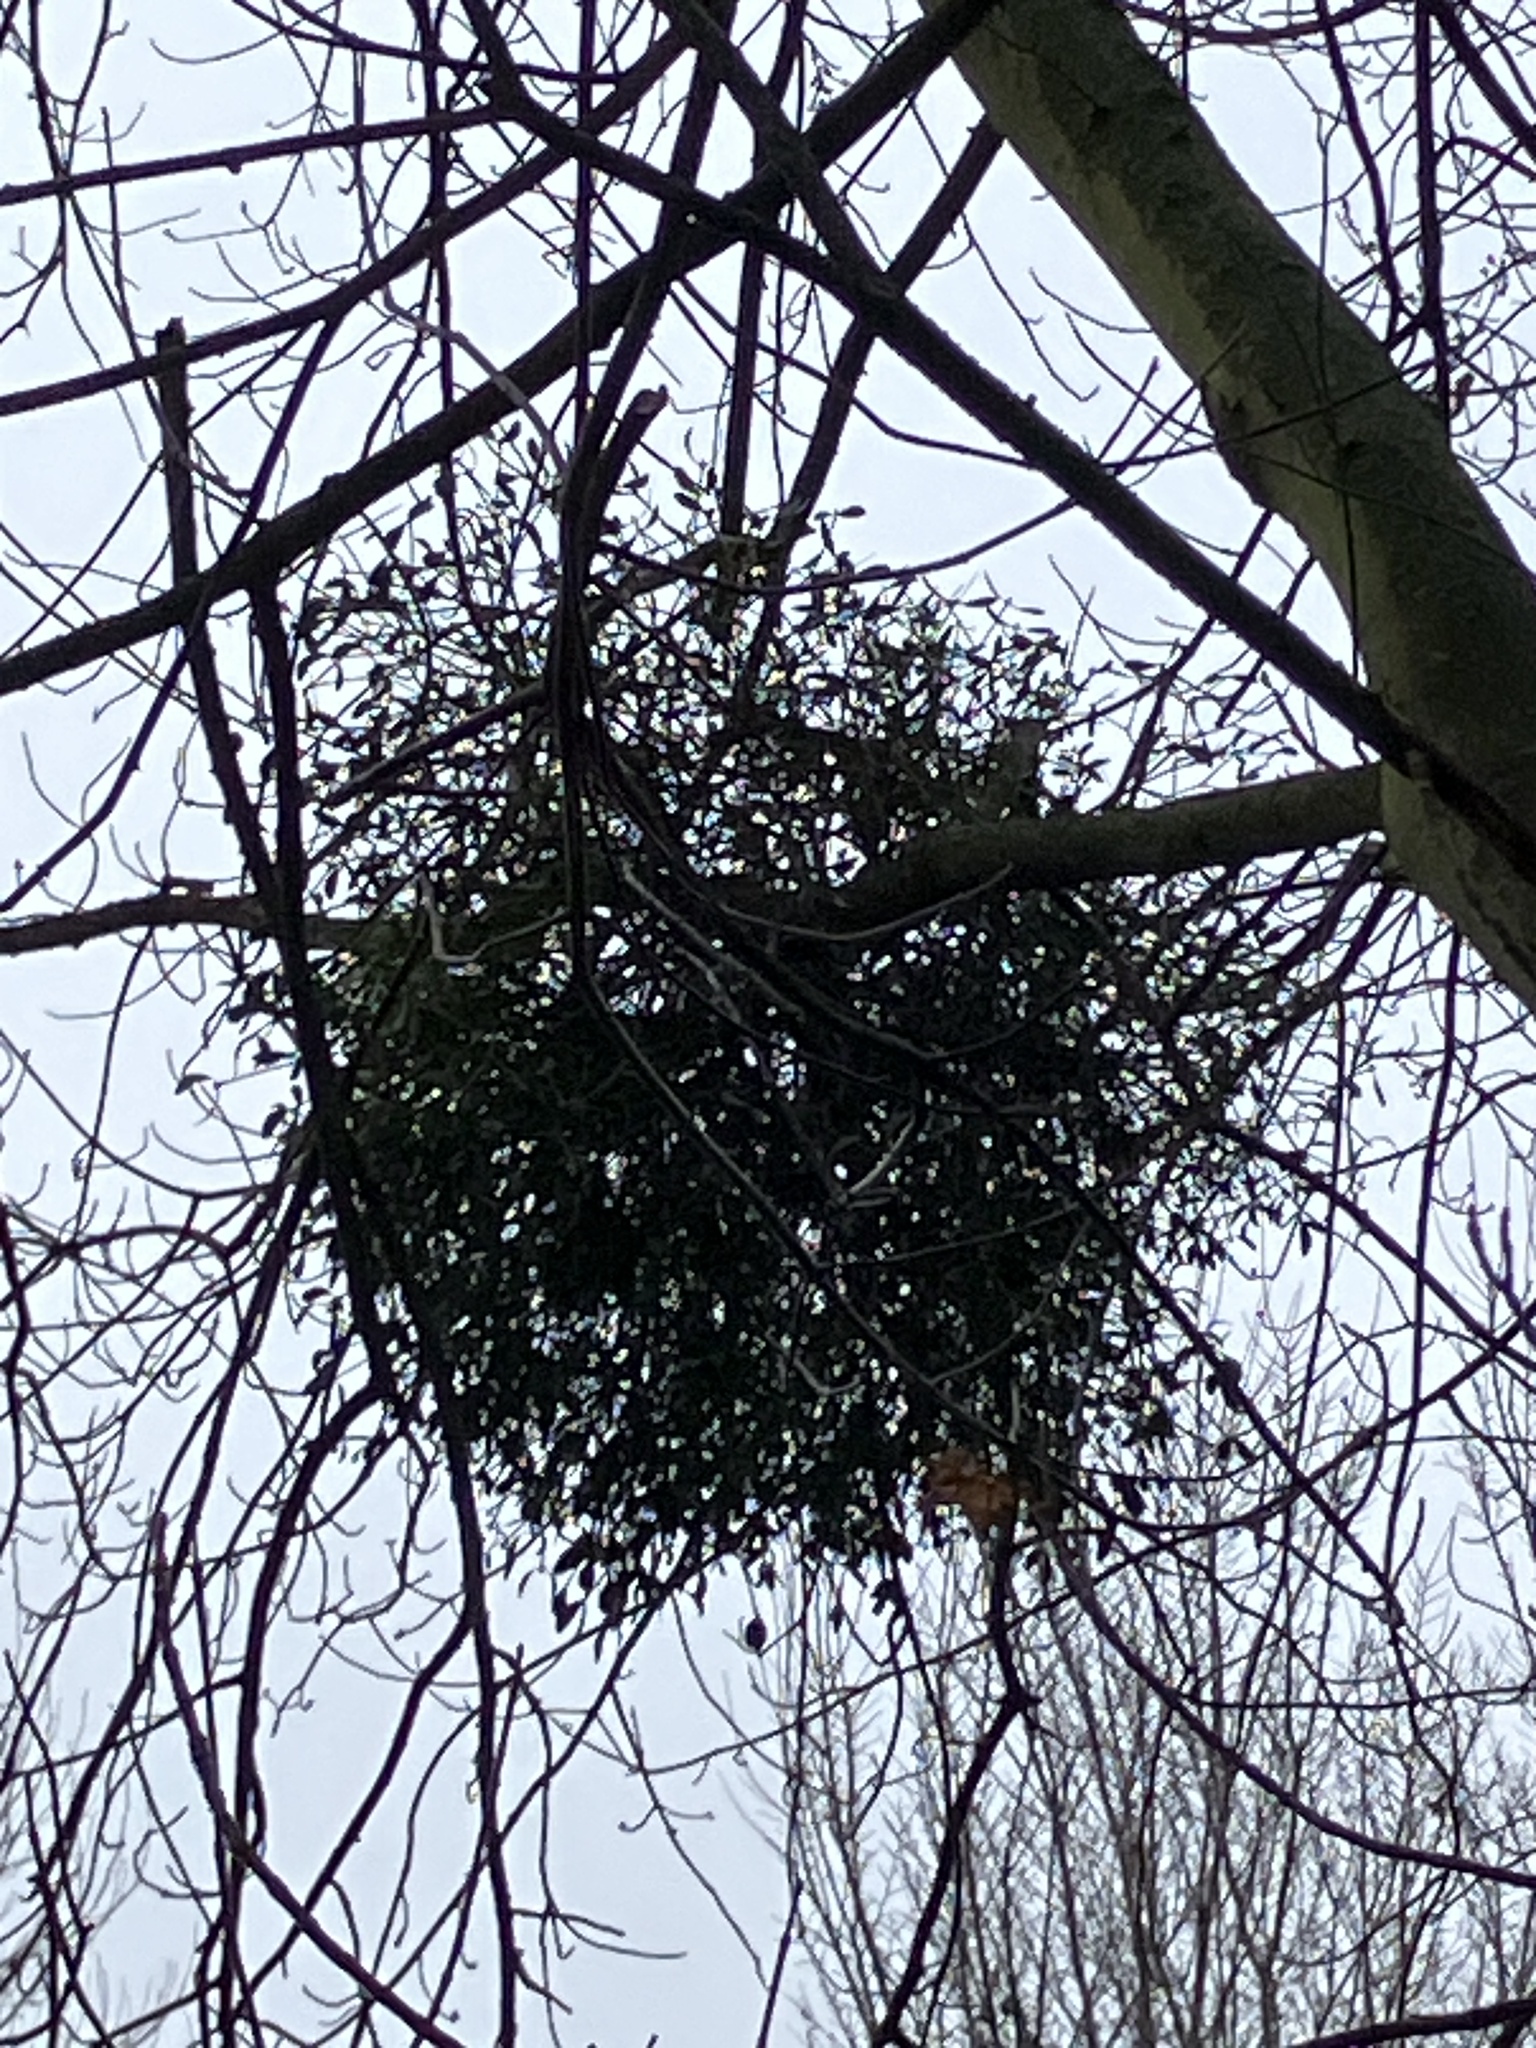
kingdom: Plantae
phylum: Tracheophyta
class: Magnoliopsida
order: Santalales
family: Viscaceae
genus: Viscum
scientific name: Viscum album
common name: Mistletoe
